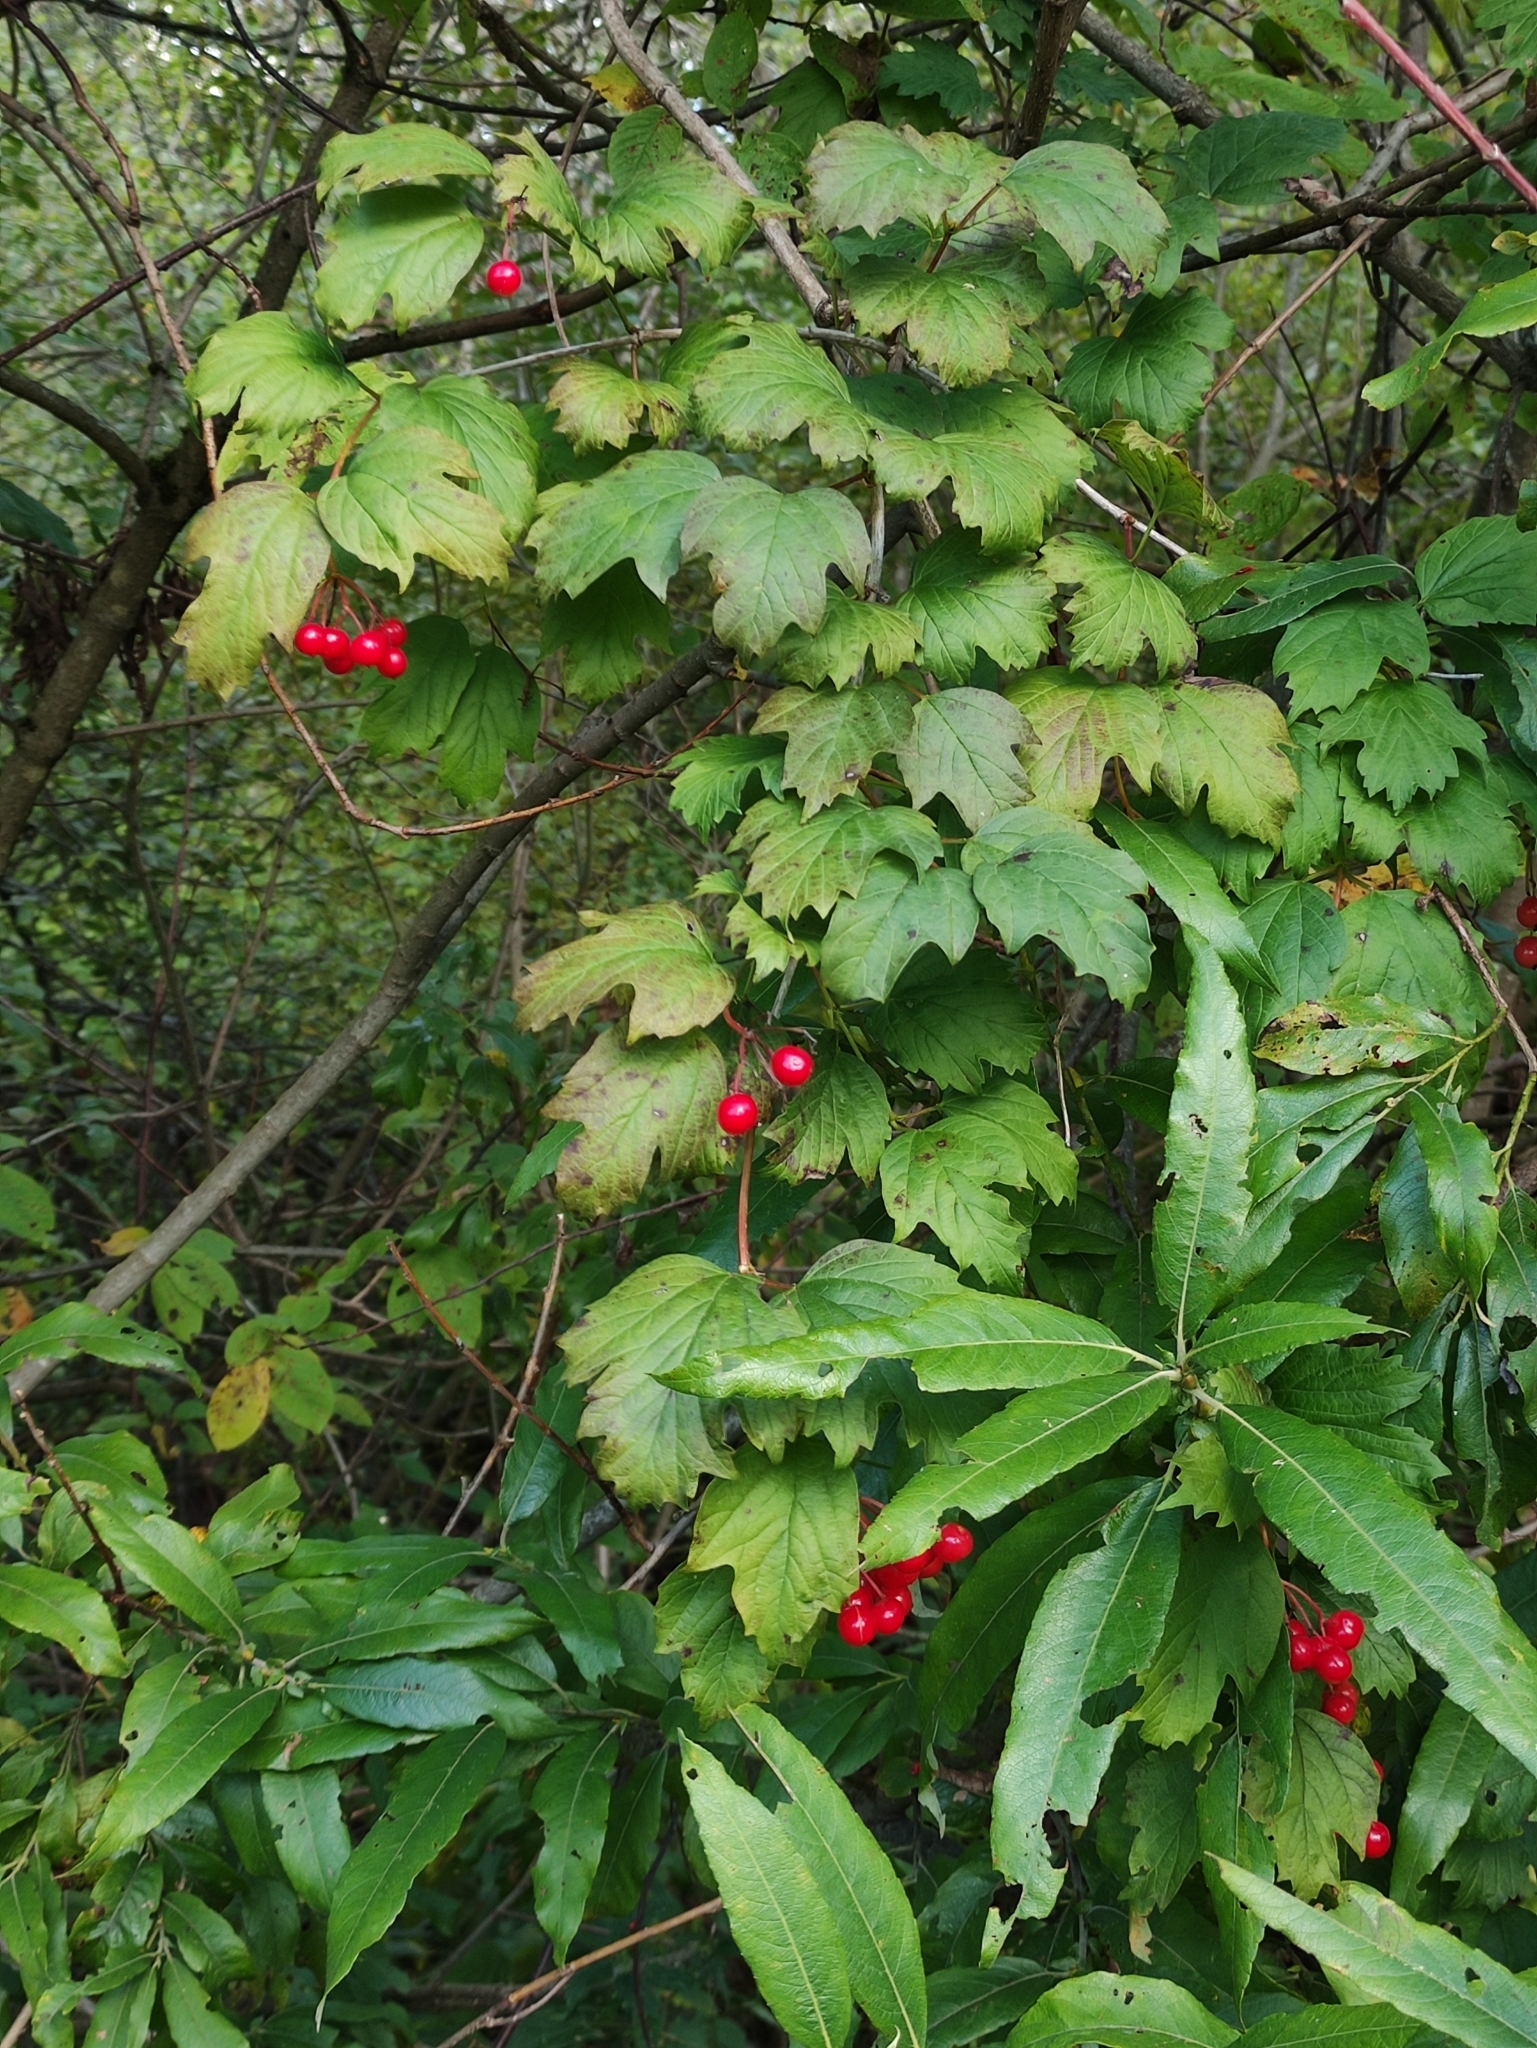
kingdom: Plantae
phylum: Tracheophyta
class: Magnoliopsida
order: Dipsacales
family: Viburnaceae
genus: Viburnum
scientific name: Viburnum opulus
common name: Guelder-rose
